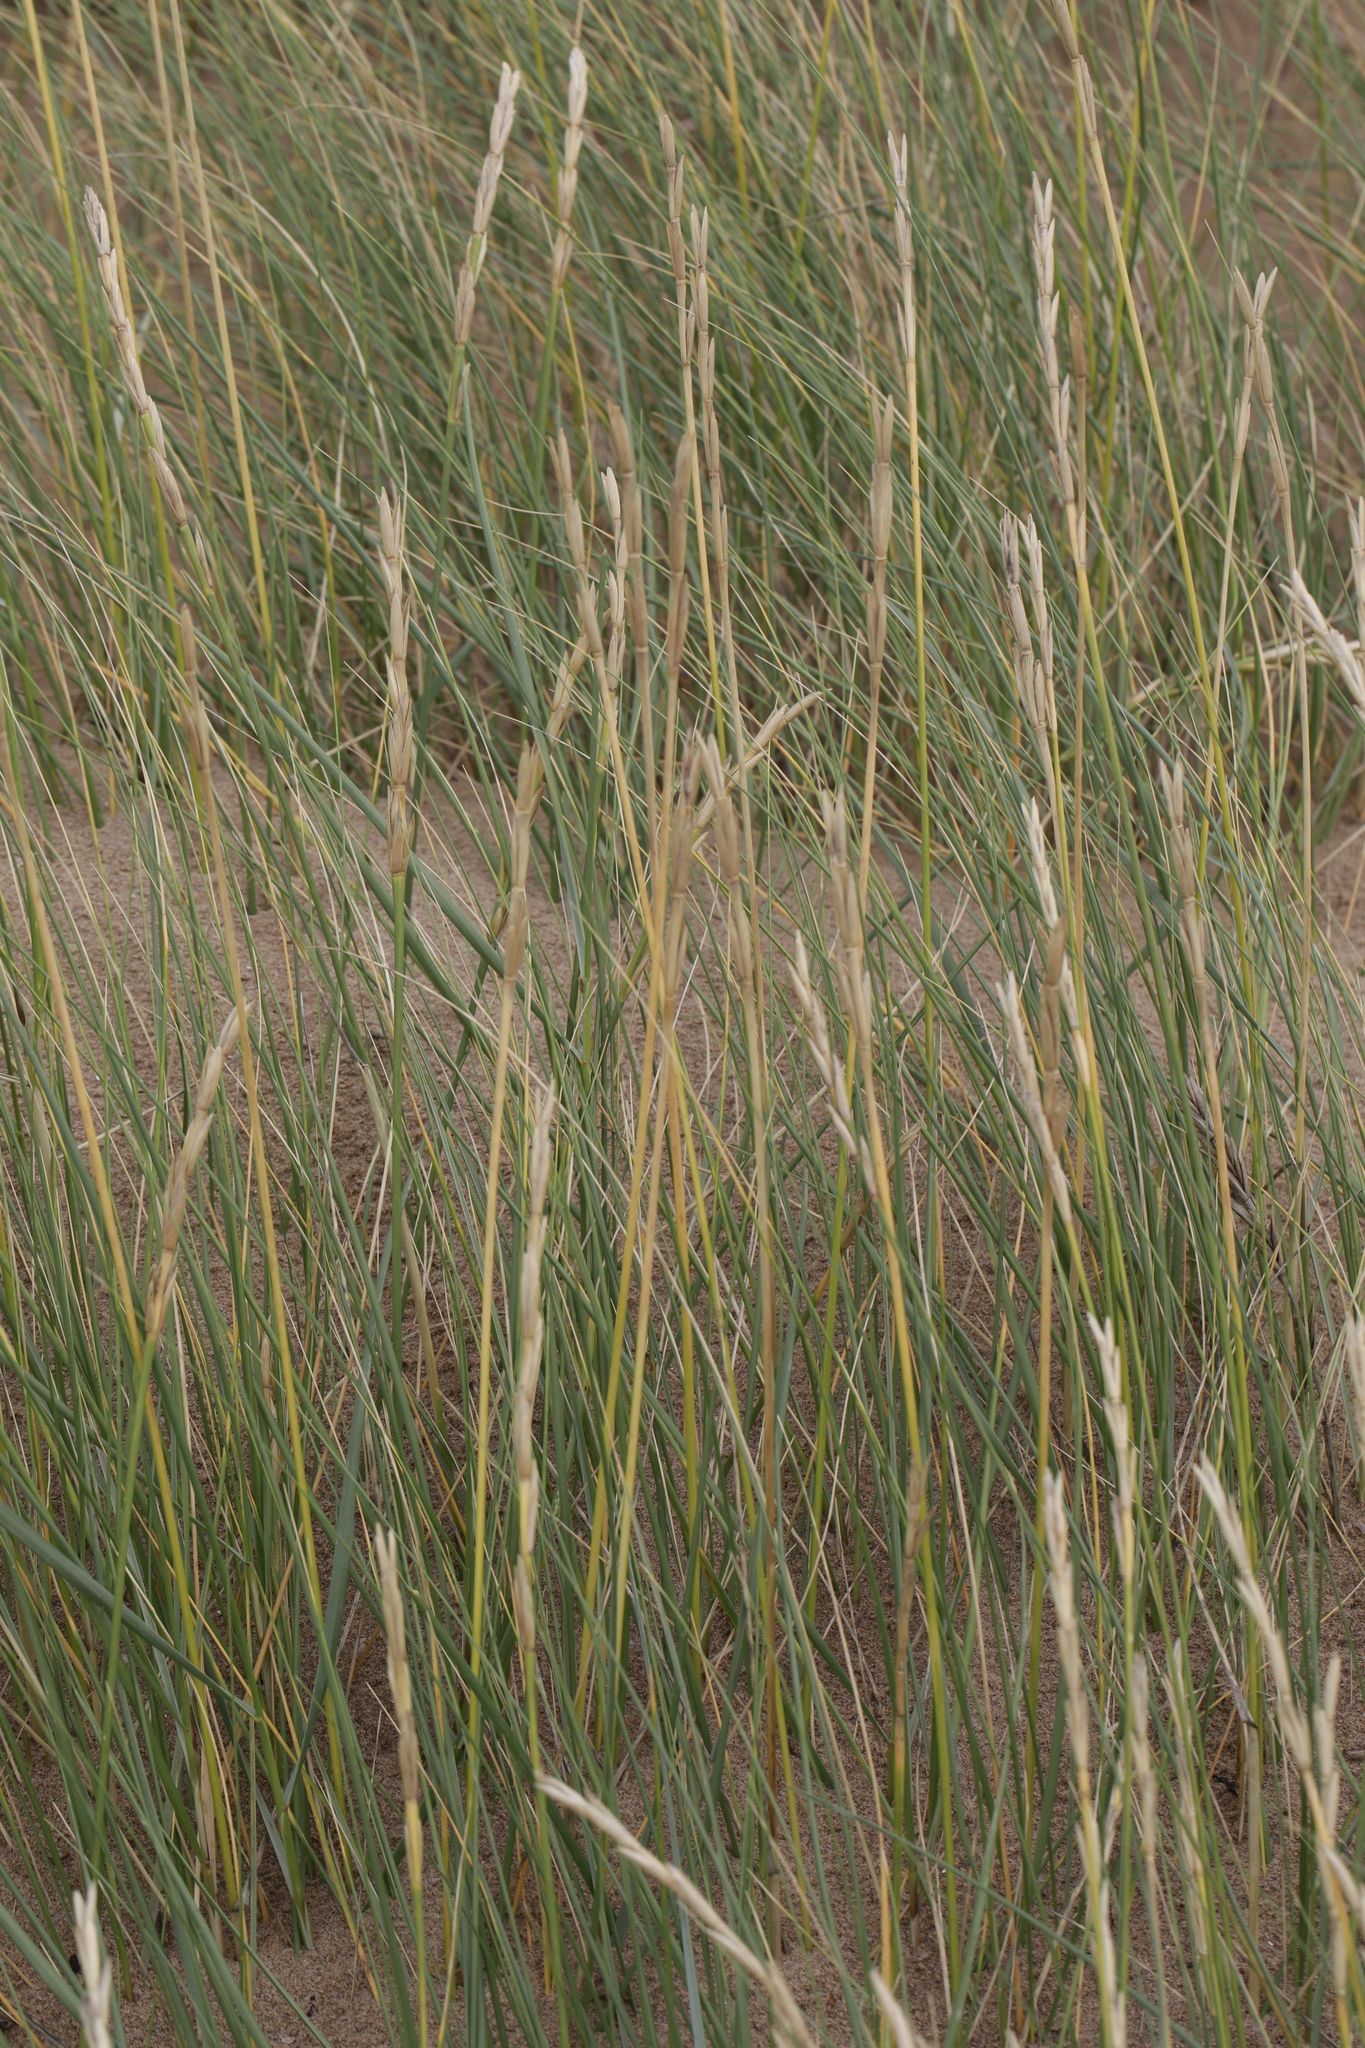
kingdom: Plantae
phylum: Tracheophyta
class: Liliopsida
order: Poales
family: Poaceae
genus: Calamagrostis
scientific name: Calamagrostis arenaria
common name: European beachgrass
